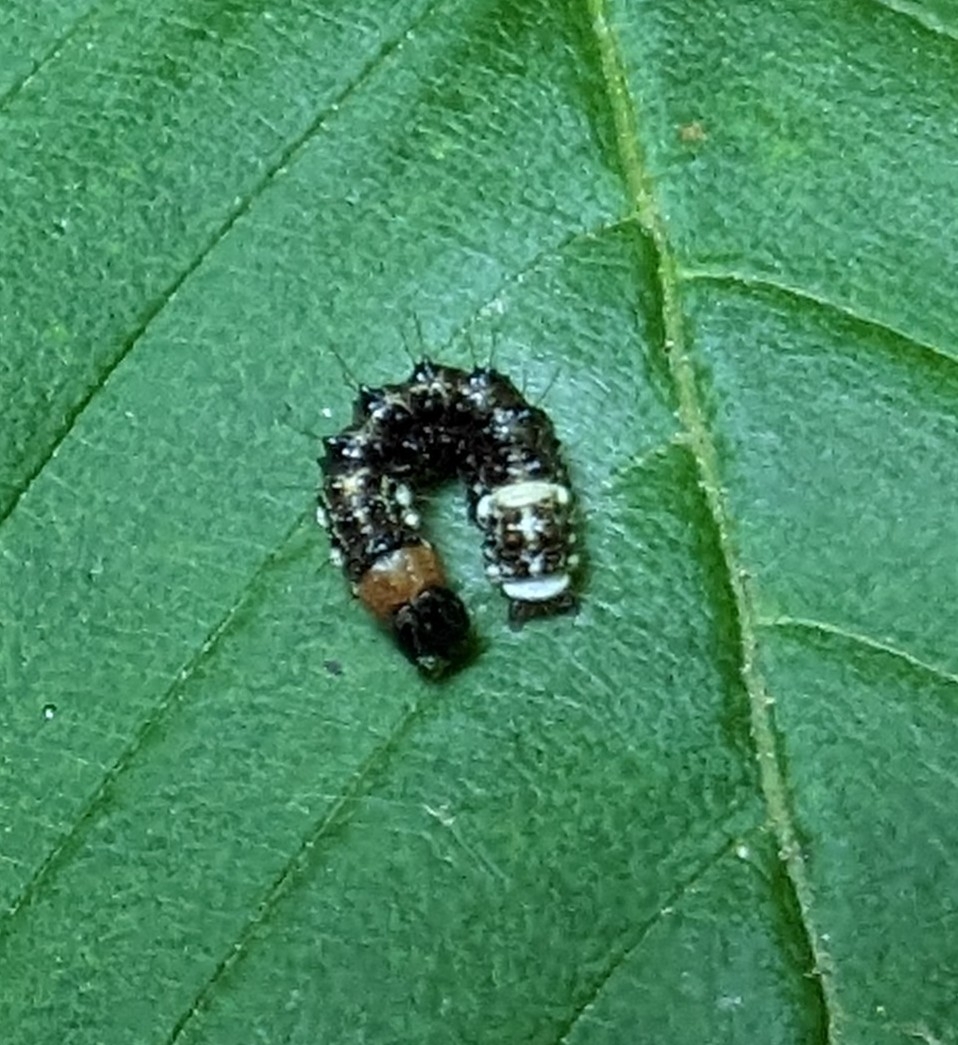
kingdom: Animalia
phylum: Arthropoda
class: Insecta
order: Lepidoptera
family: Noctuidae
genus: Acronicta
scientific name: Acronicta funeralis
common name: Funerary dagger
